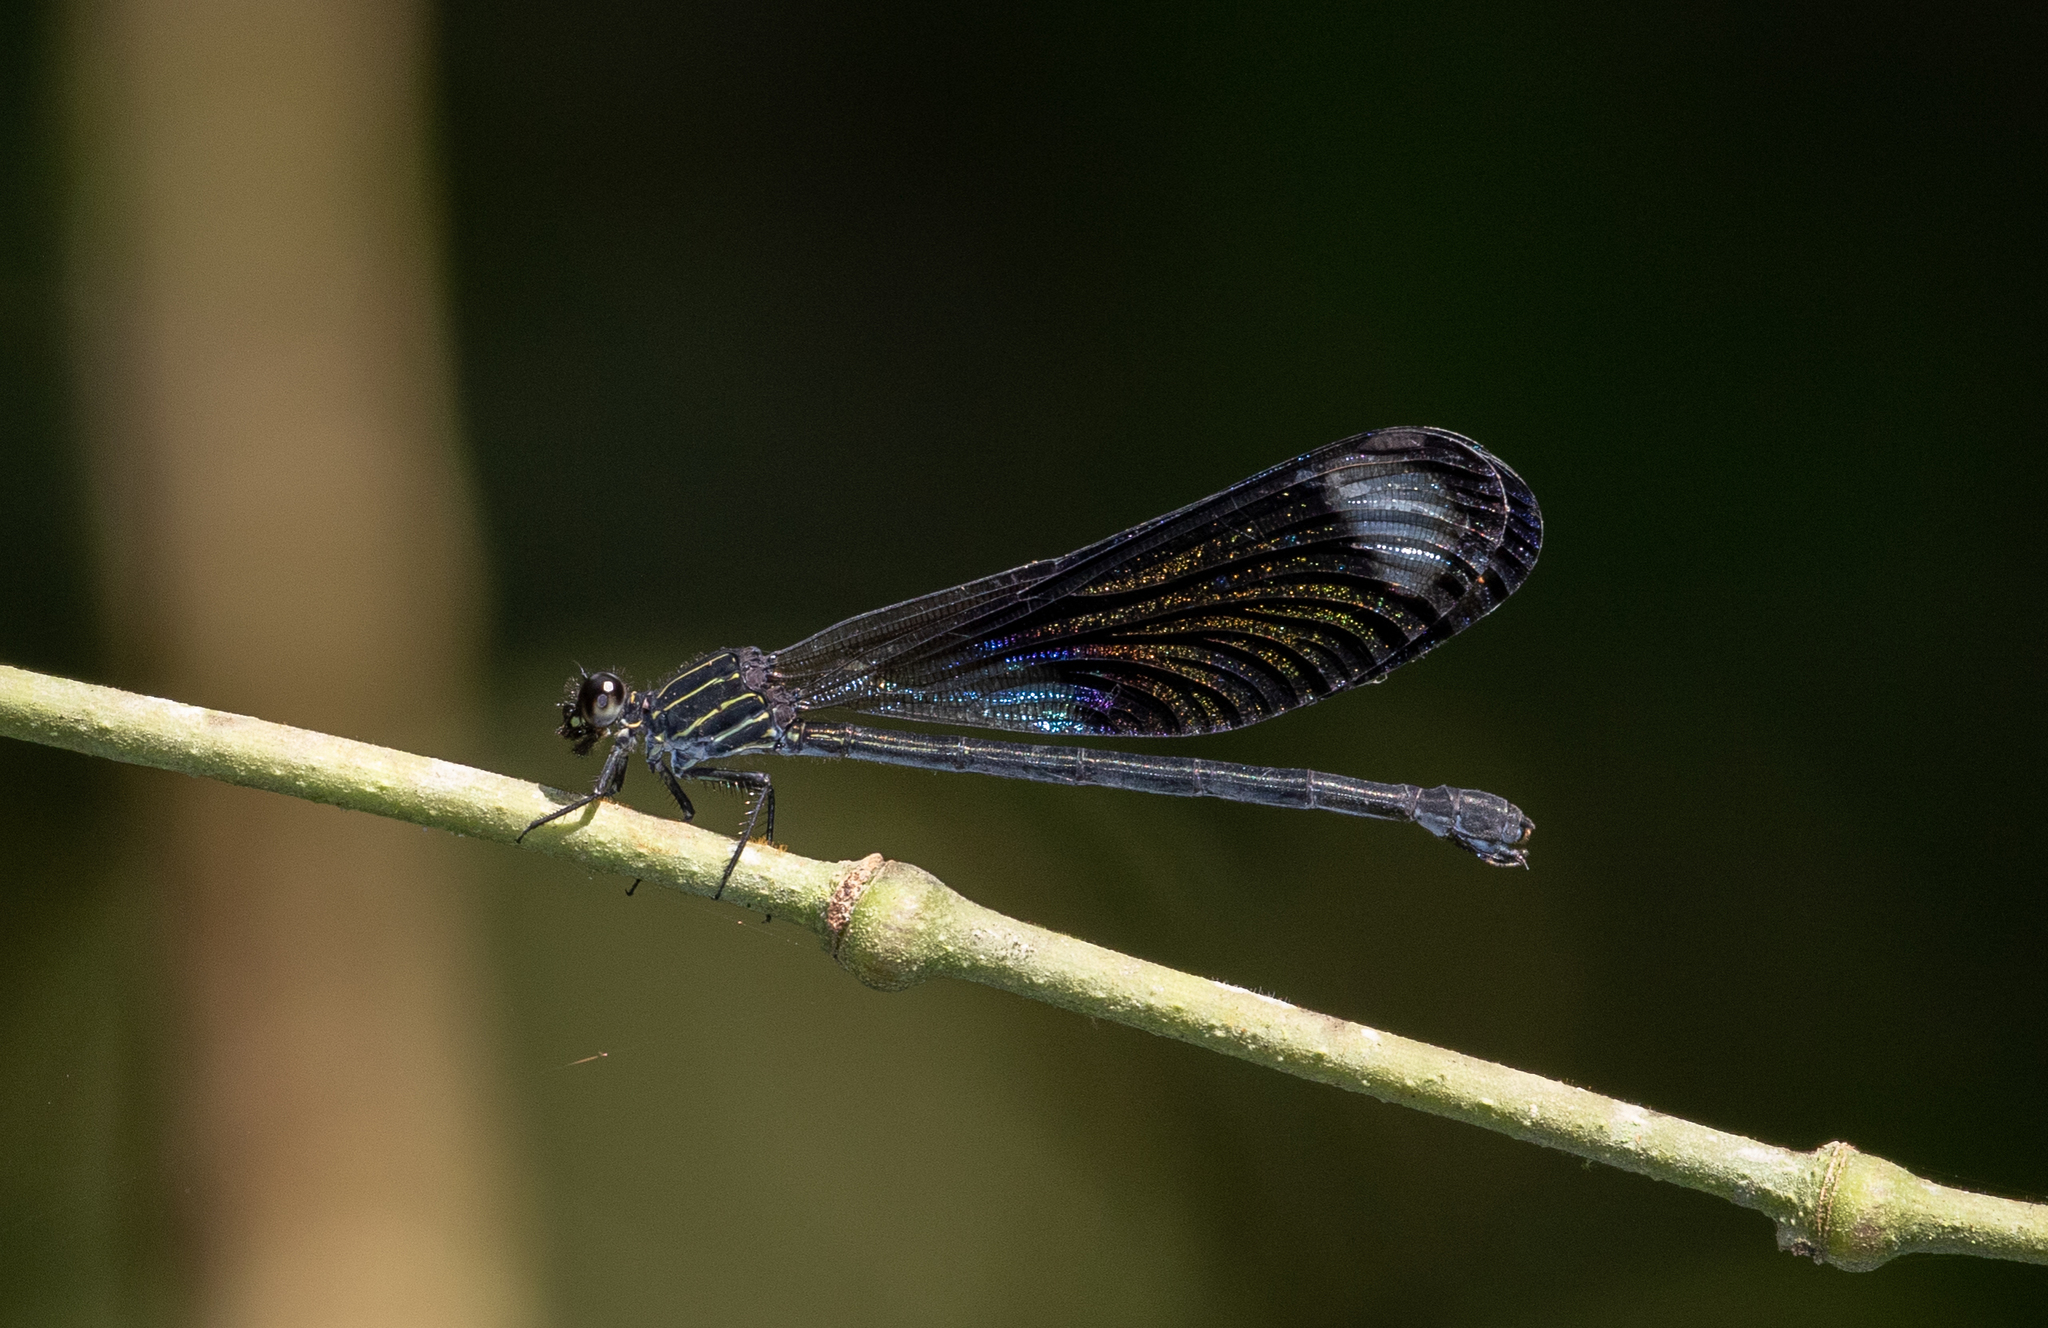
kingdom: Animalia
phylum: Arthropoda
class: Insecta
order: Odonata
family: Polythoridae
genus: Polythore
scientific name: Polythore gigantea
